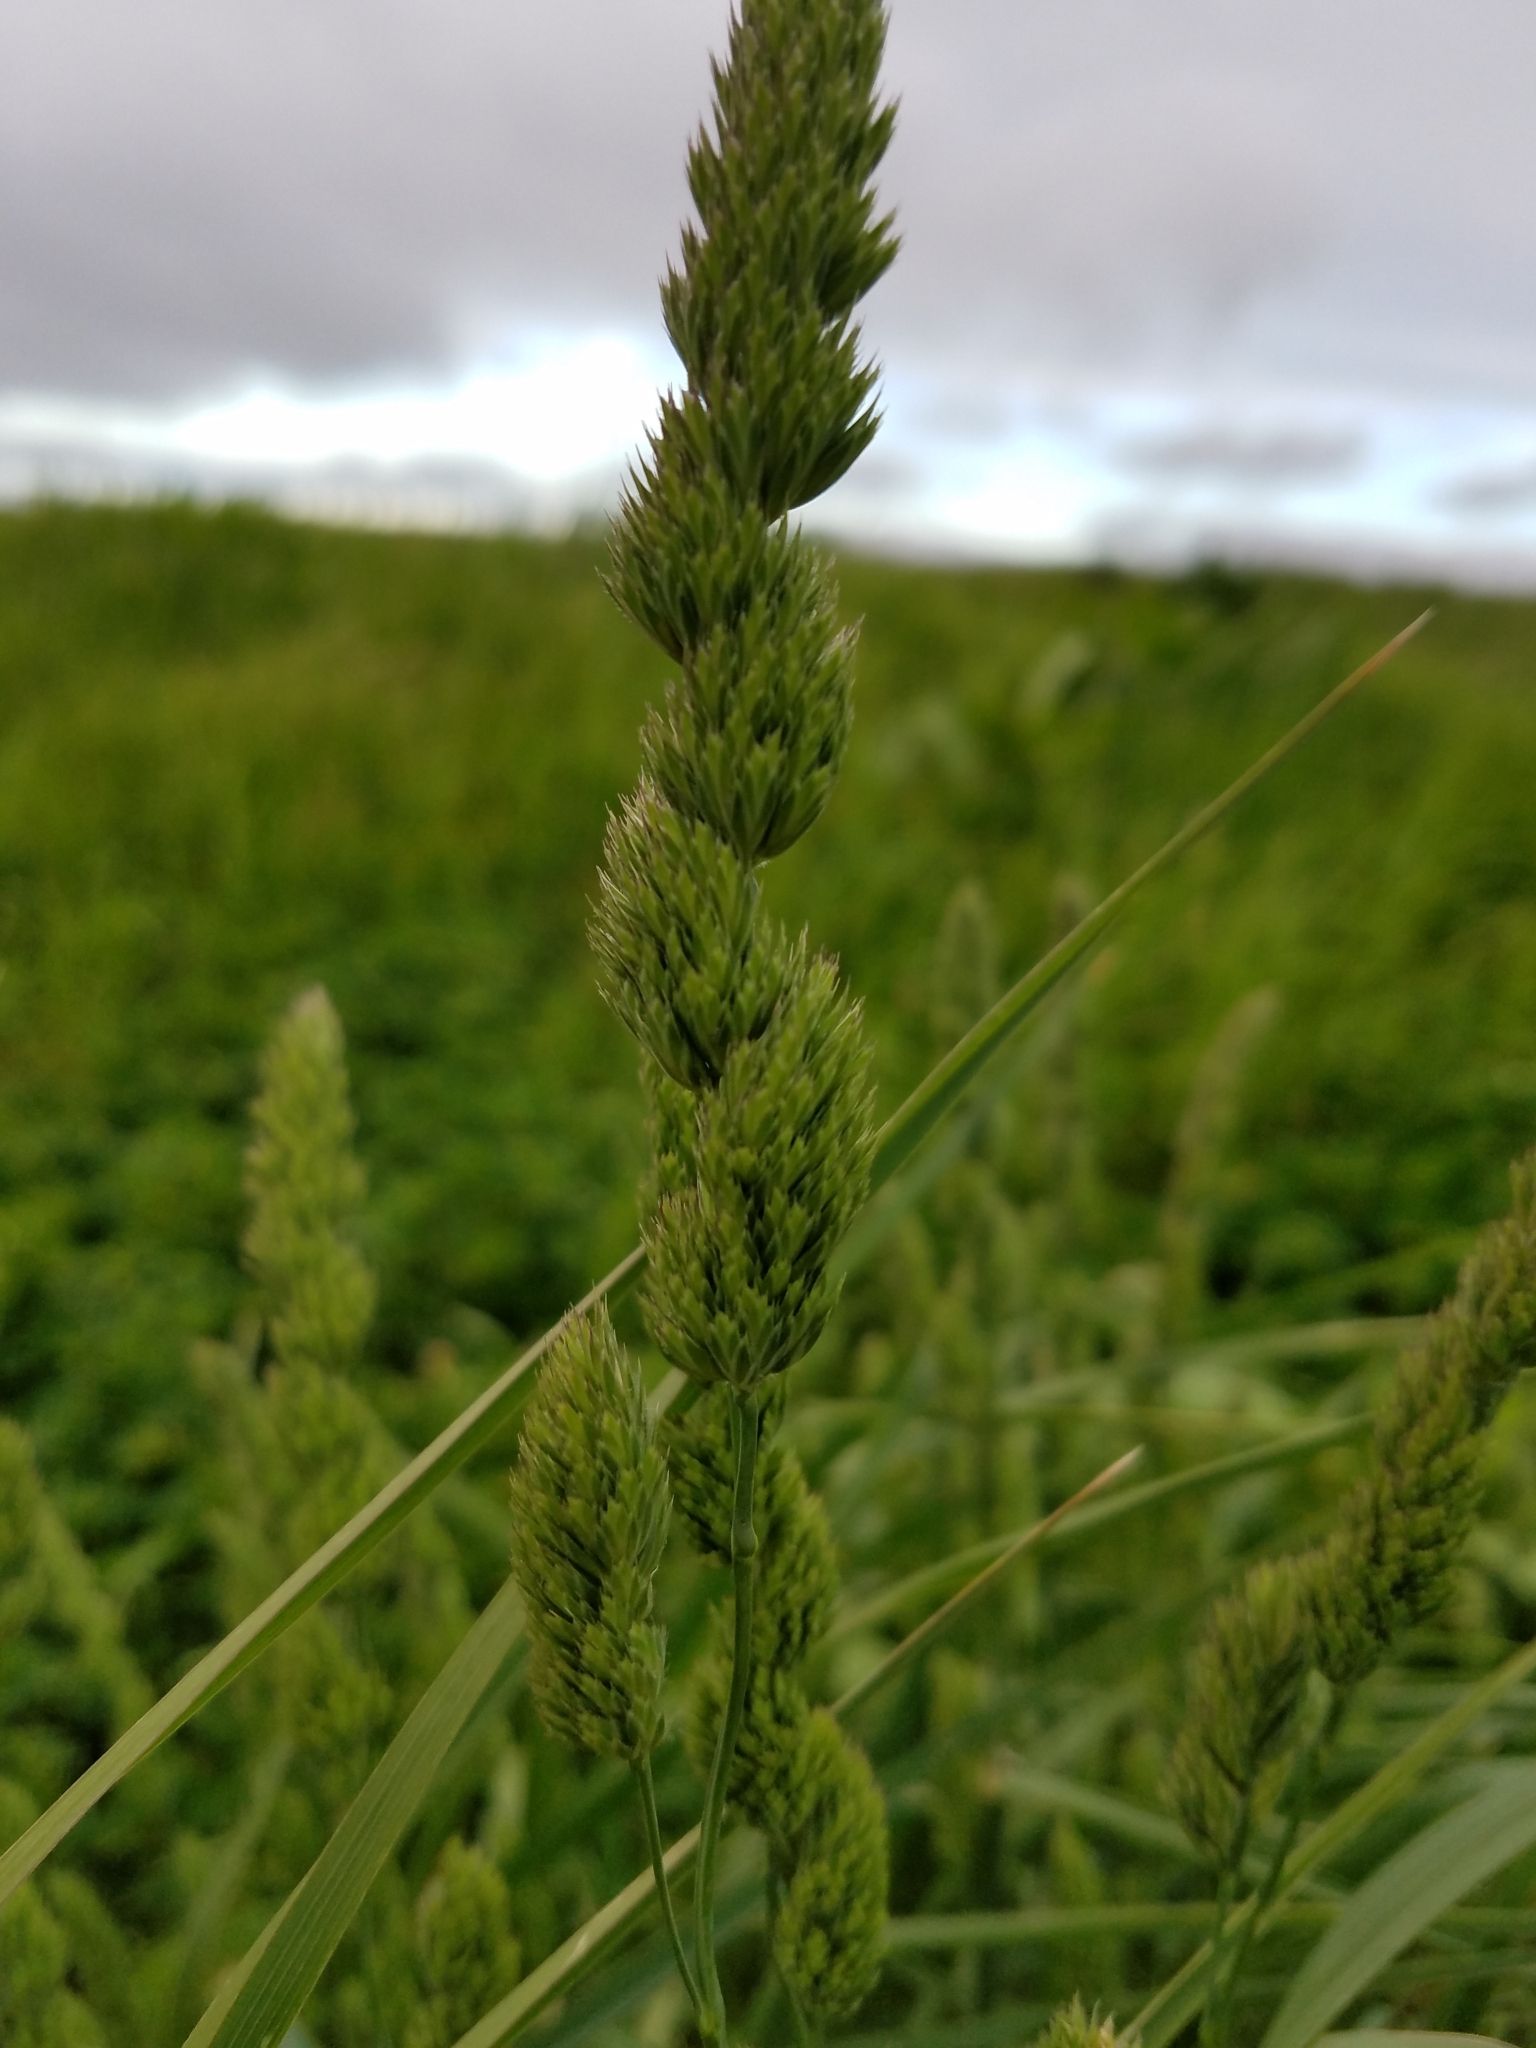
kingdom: Plantae
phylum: Tracheophyta
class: Liliopsida
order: Poales
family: Poaceae
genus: Dactylis
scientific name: Dactylis glomerata
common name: Orchardgrass
